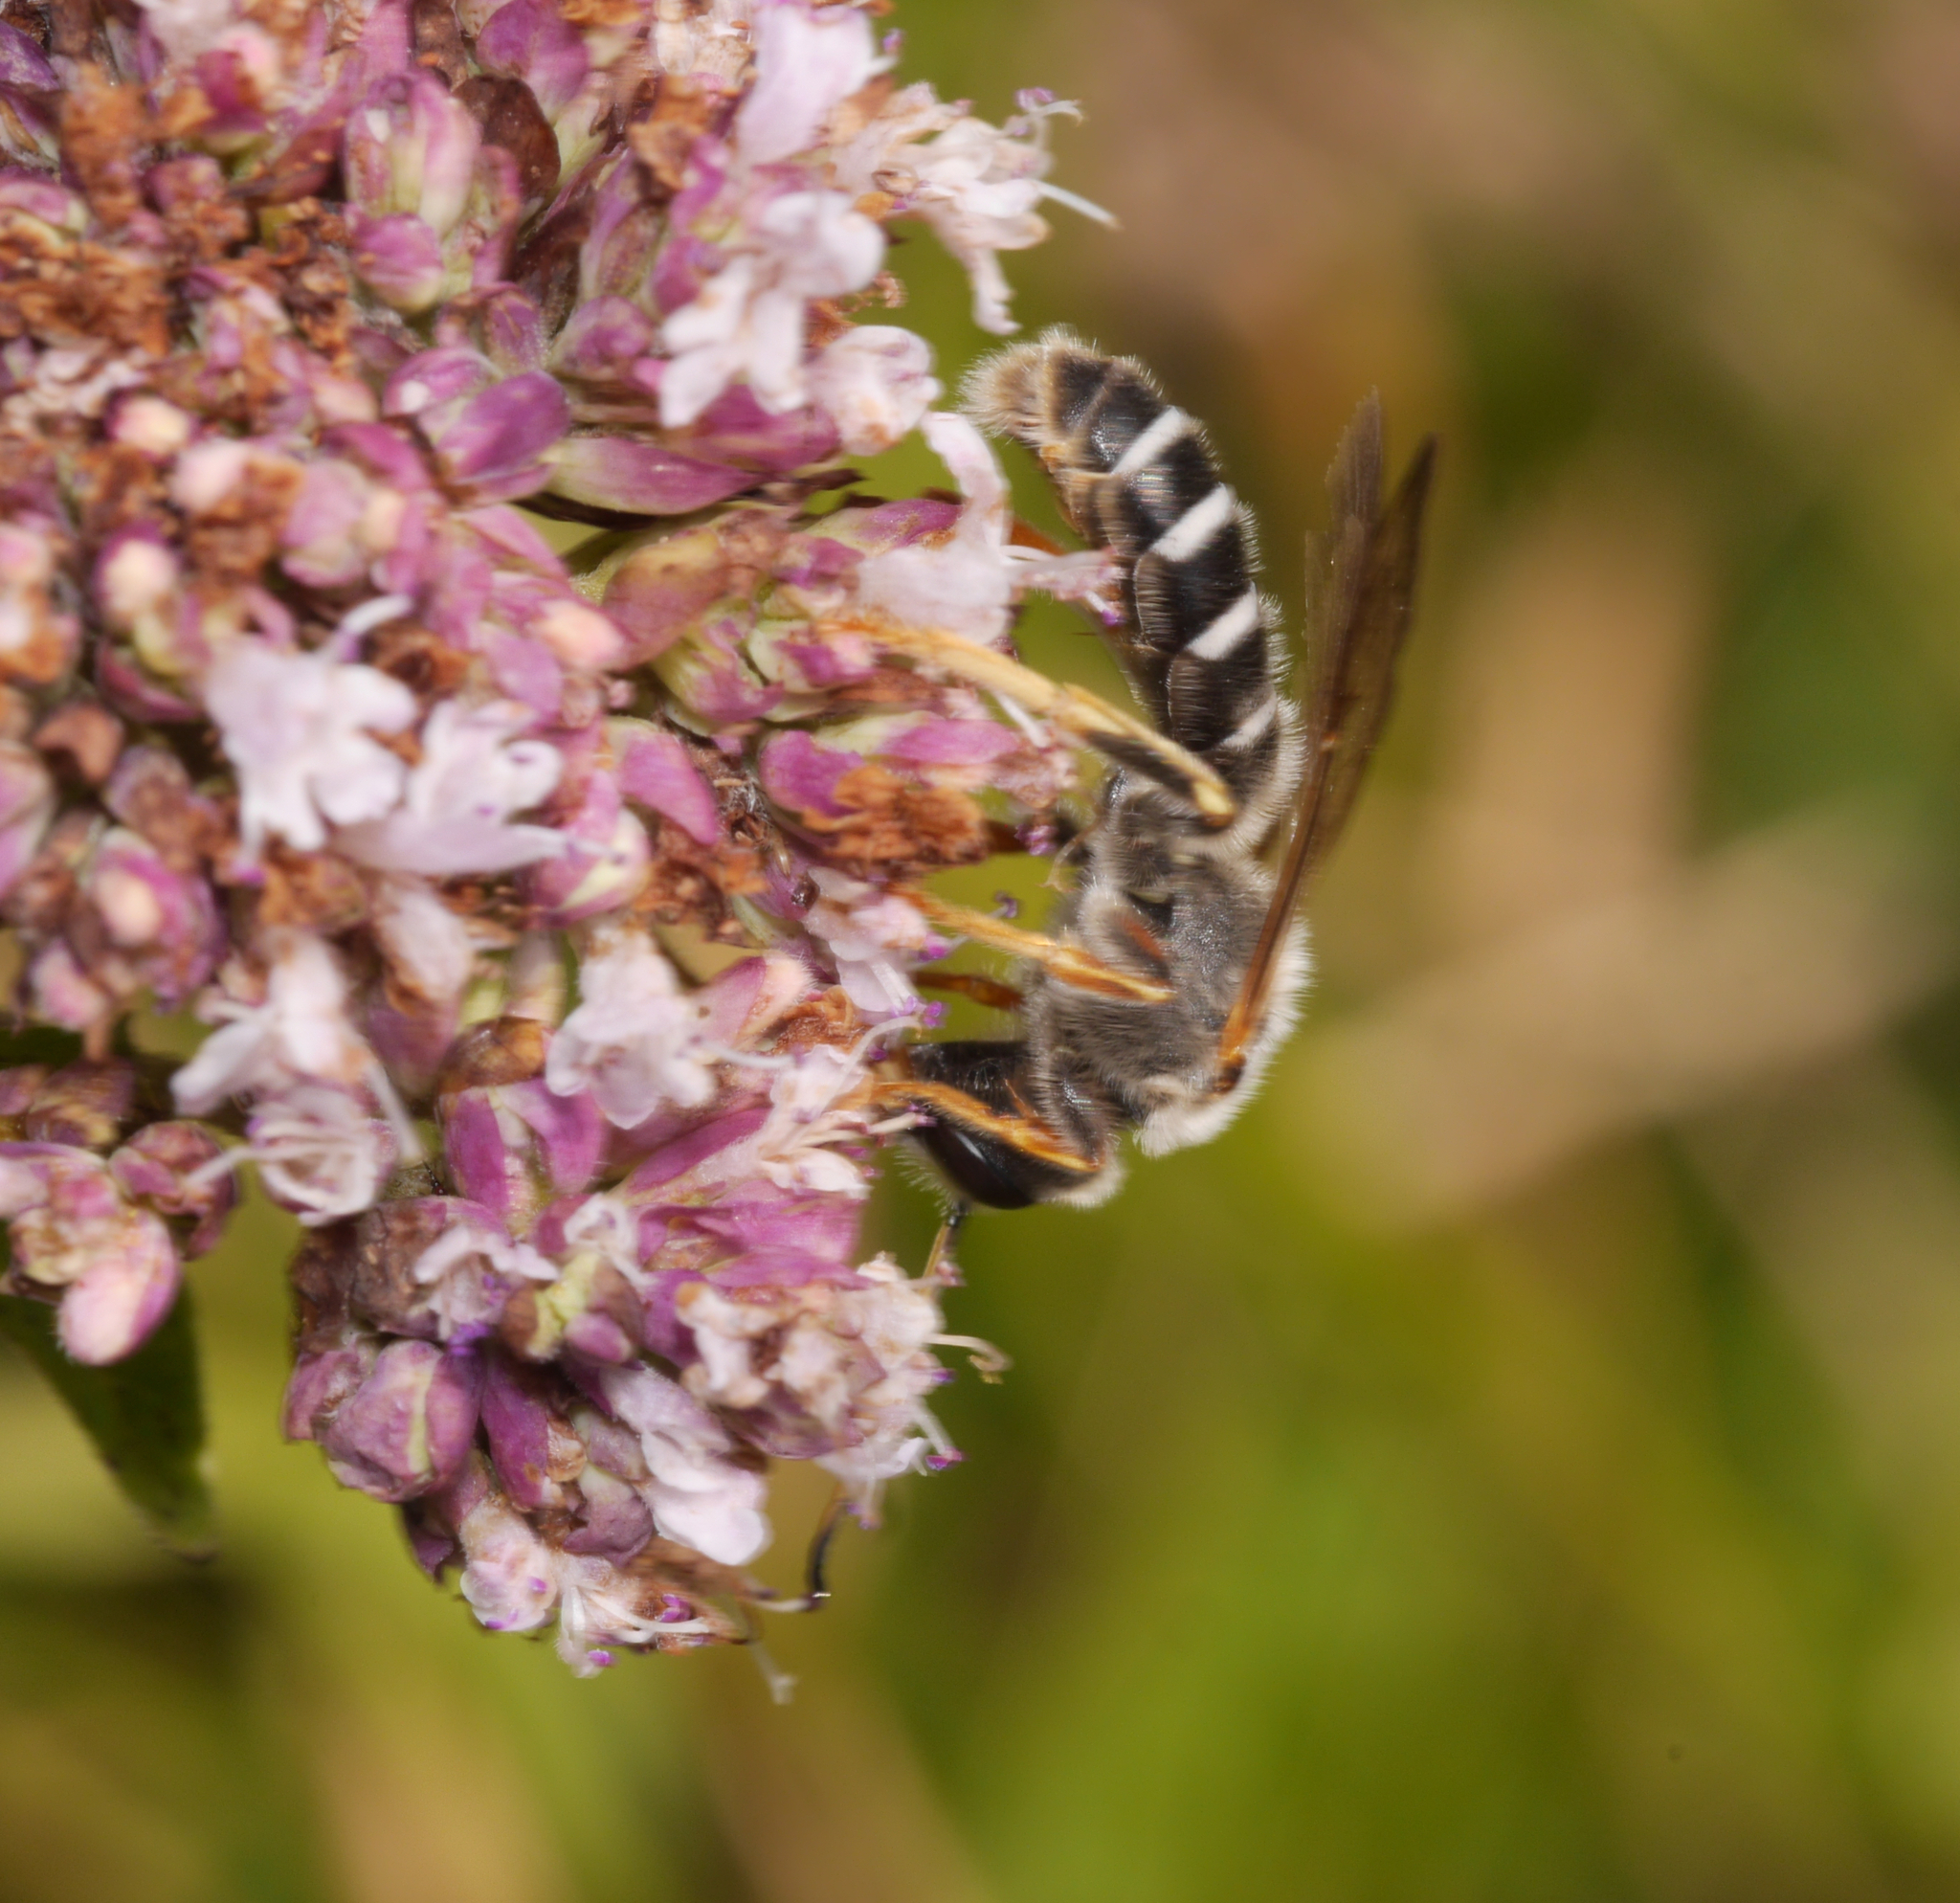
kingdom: Animalia
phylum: Arthropoda
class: Insecta
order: Hymenoptera
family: Halictidae
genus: Halictus
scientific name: Halictus quadricinctus
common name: Giant furrow bee
